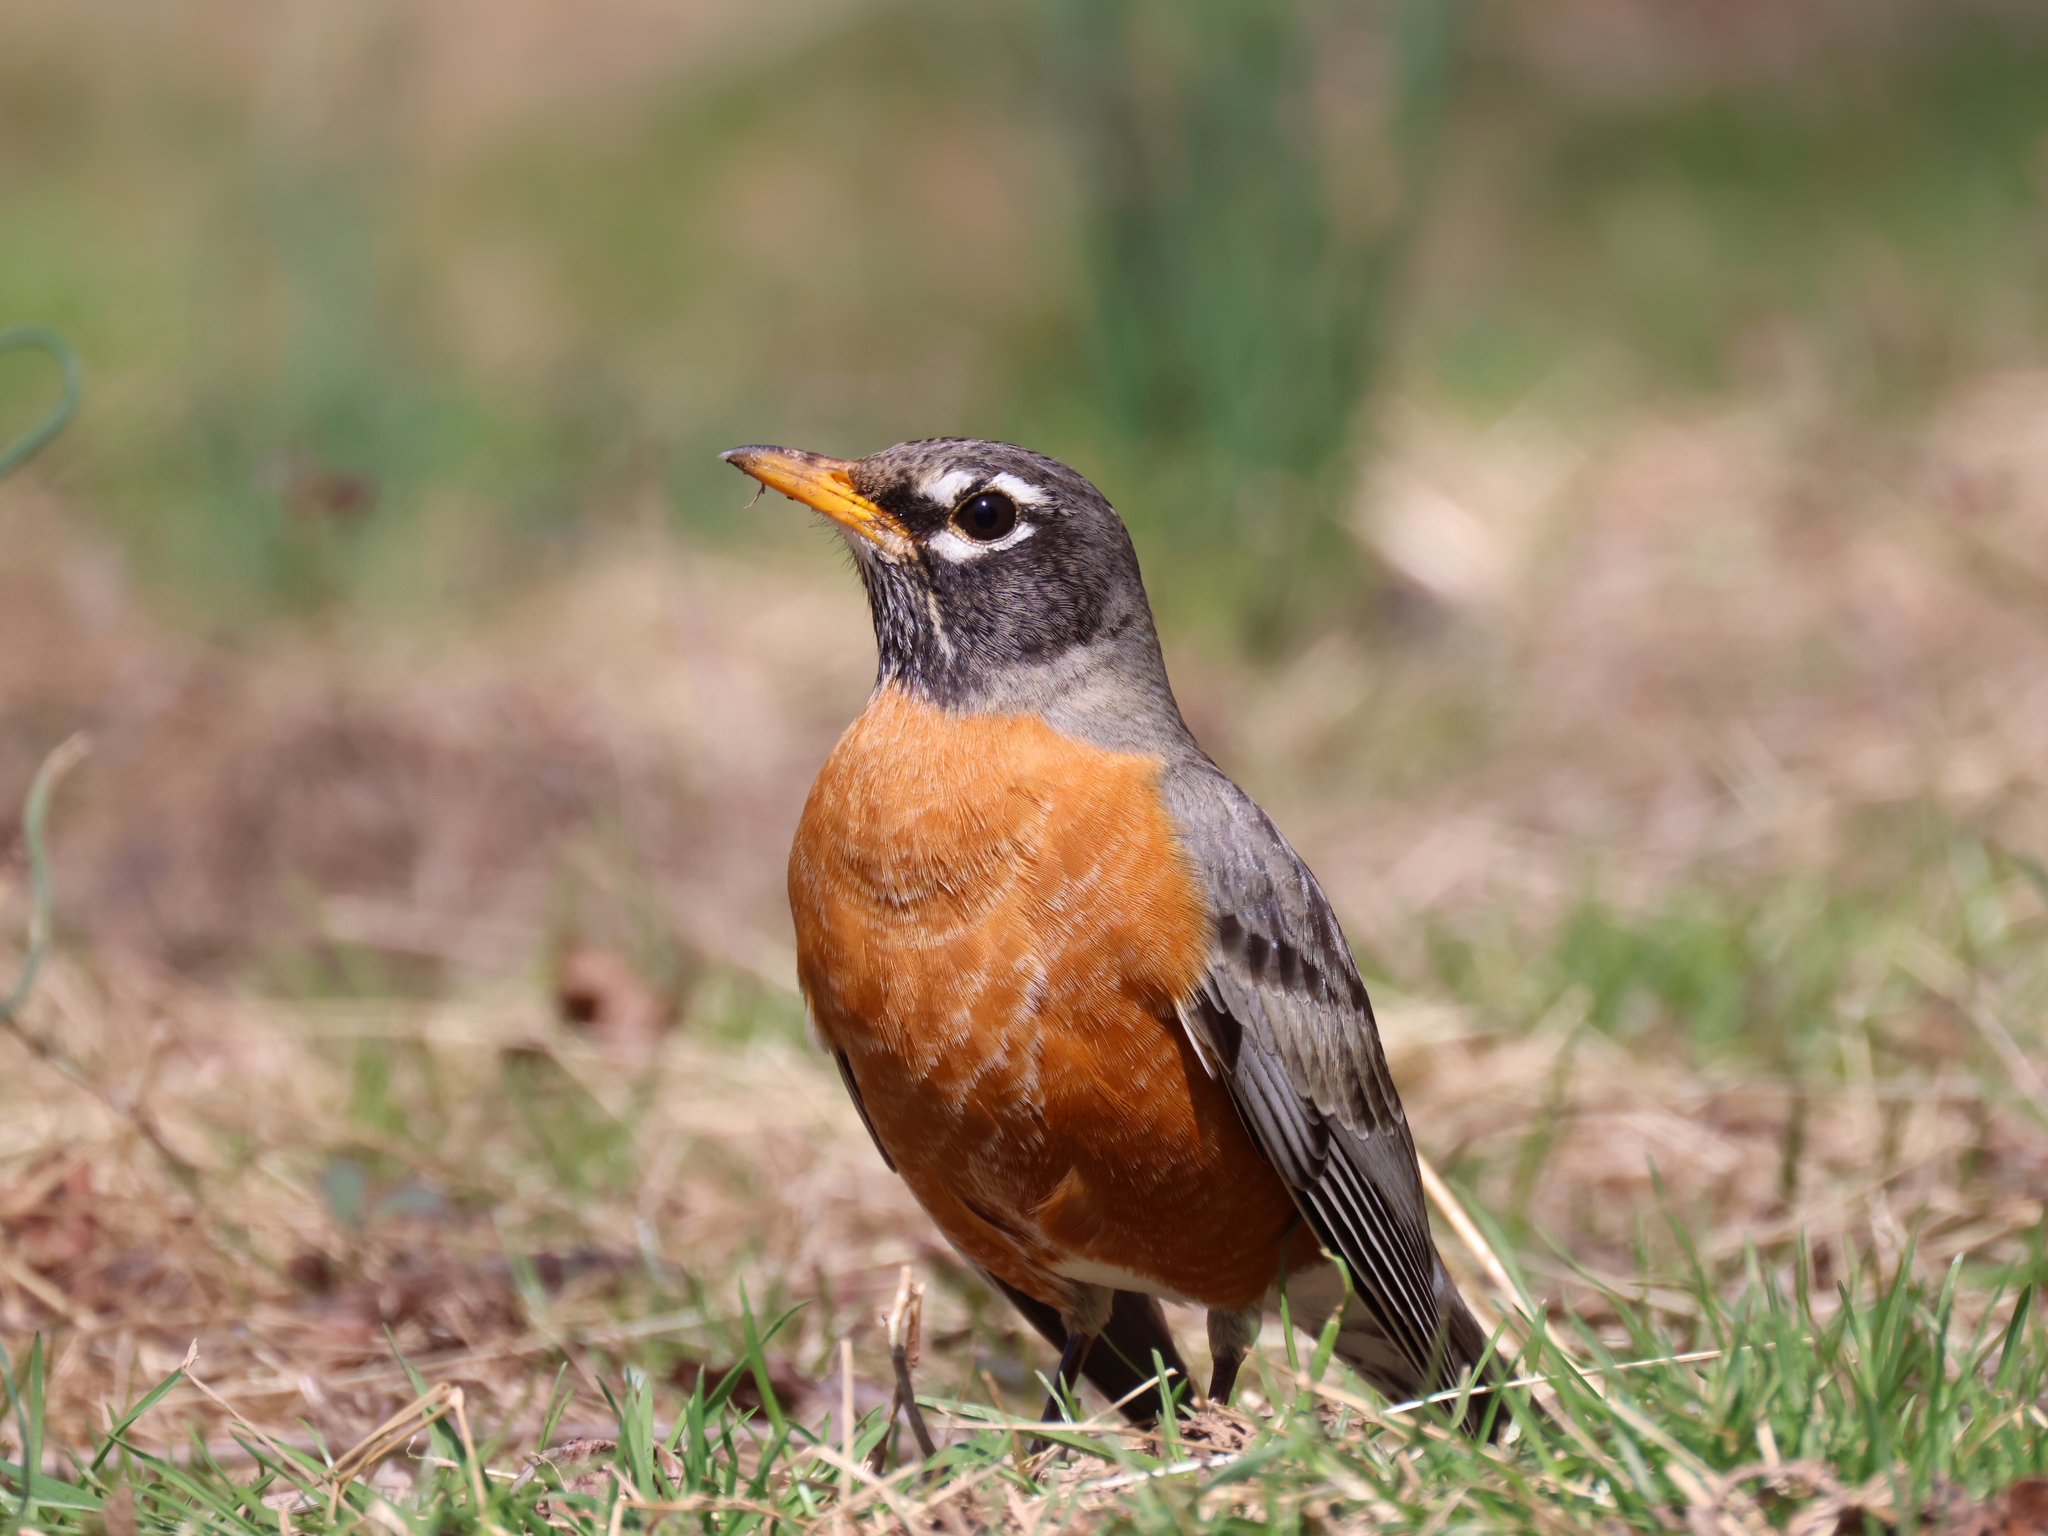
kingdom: Animalia
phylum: Chordata
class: Aves
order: Passeriformes
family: Turdidae
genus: Turdus
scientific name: Turdus migratorius
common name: American robin
